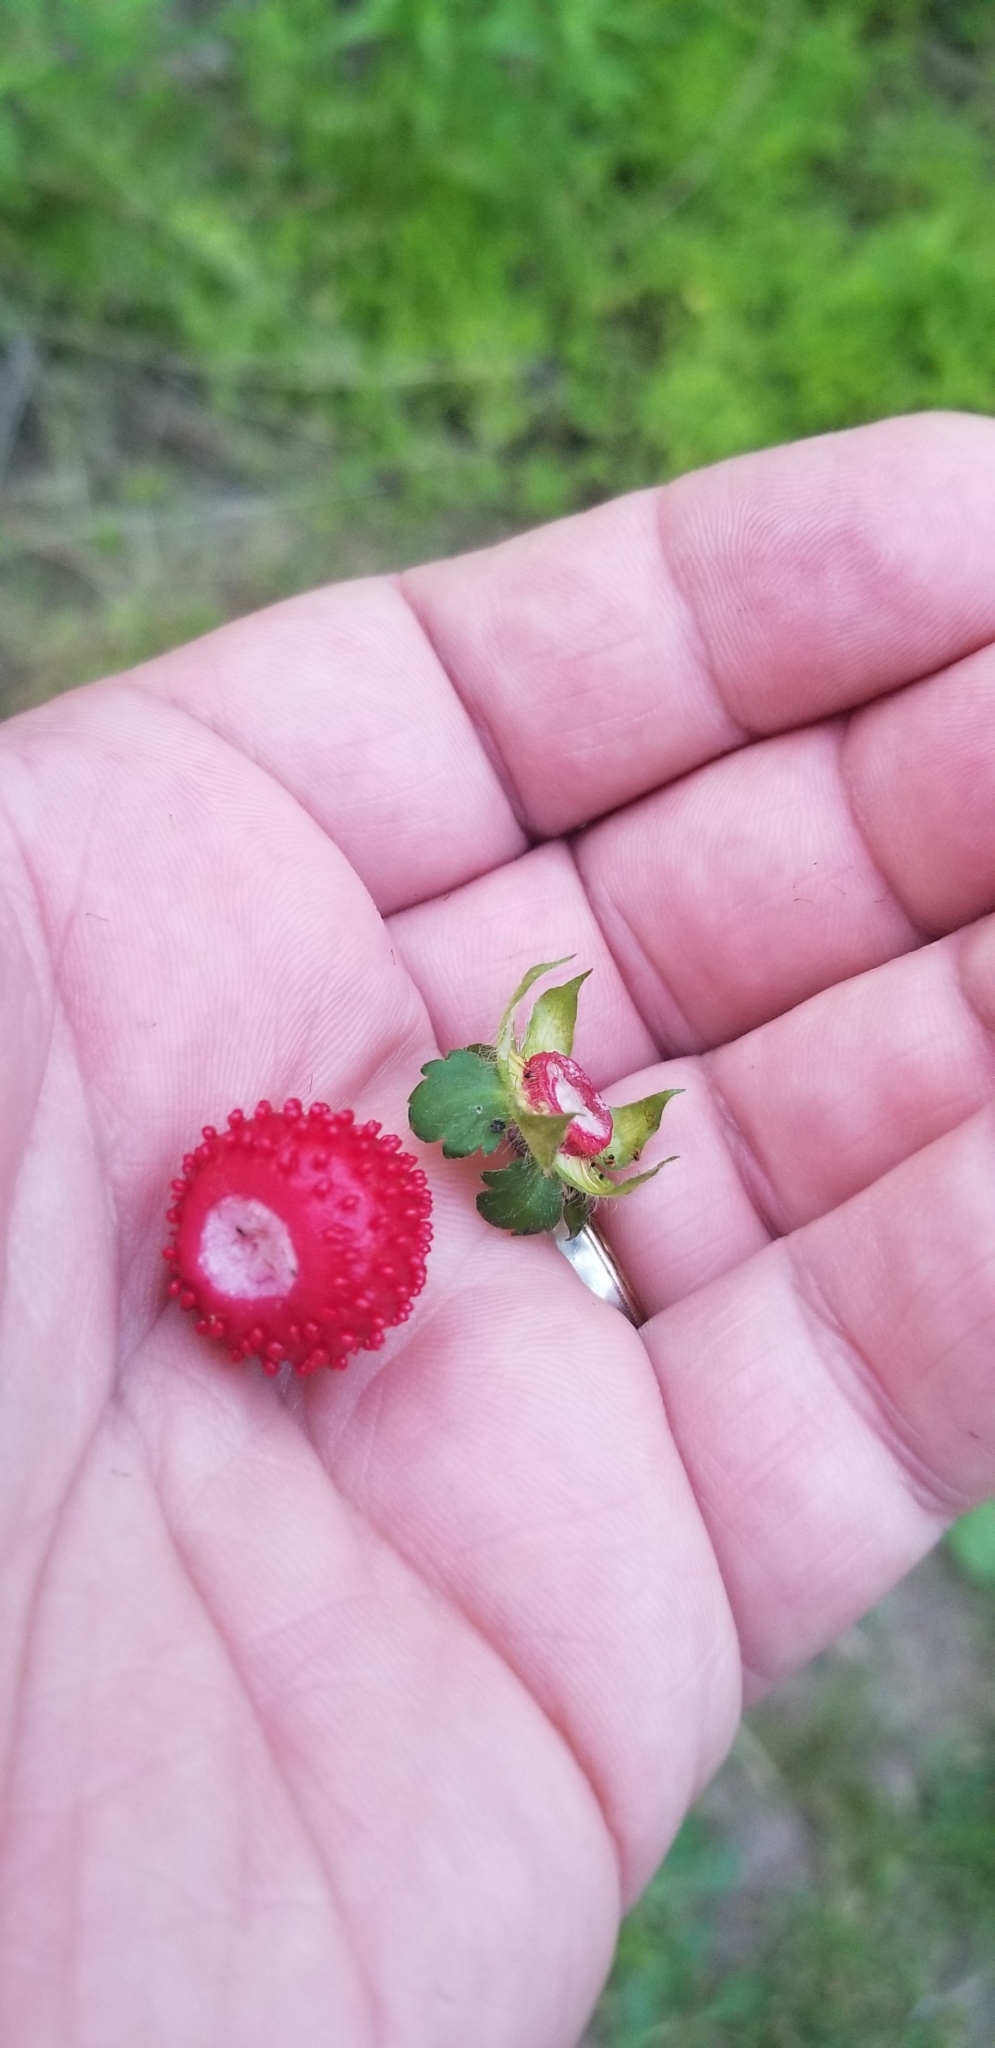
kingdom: Plantae
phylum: Tracheophyta
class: Magnoliopsida
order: Rosales
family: Rosaceae
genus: Potentilla
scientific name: Potentilla indica
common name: Yellow-flowered strawberry
